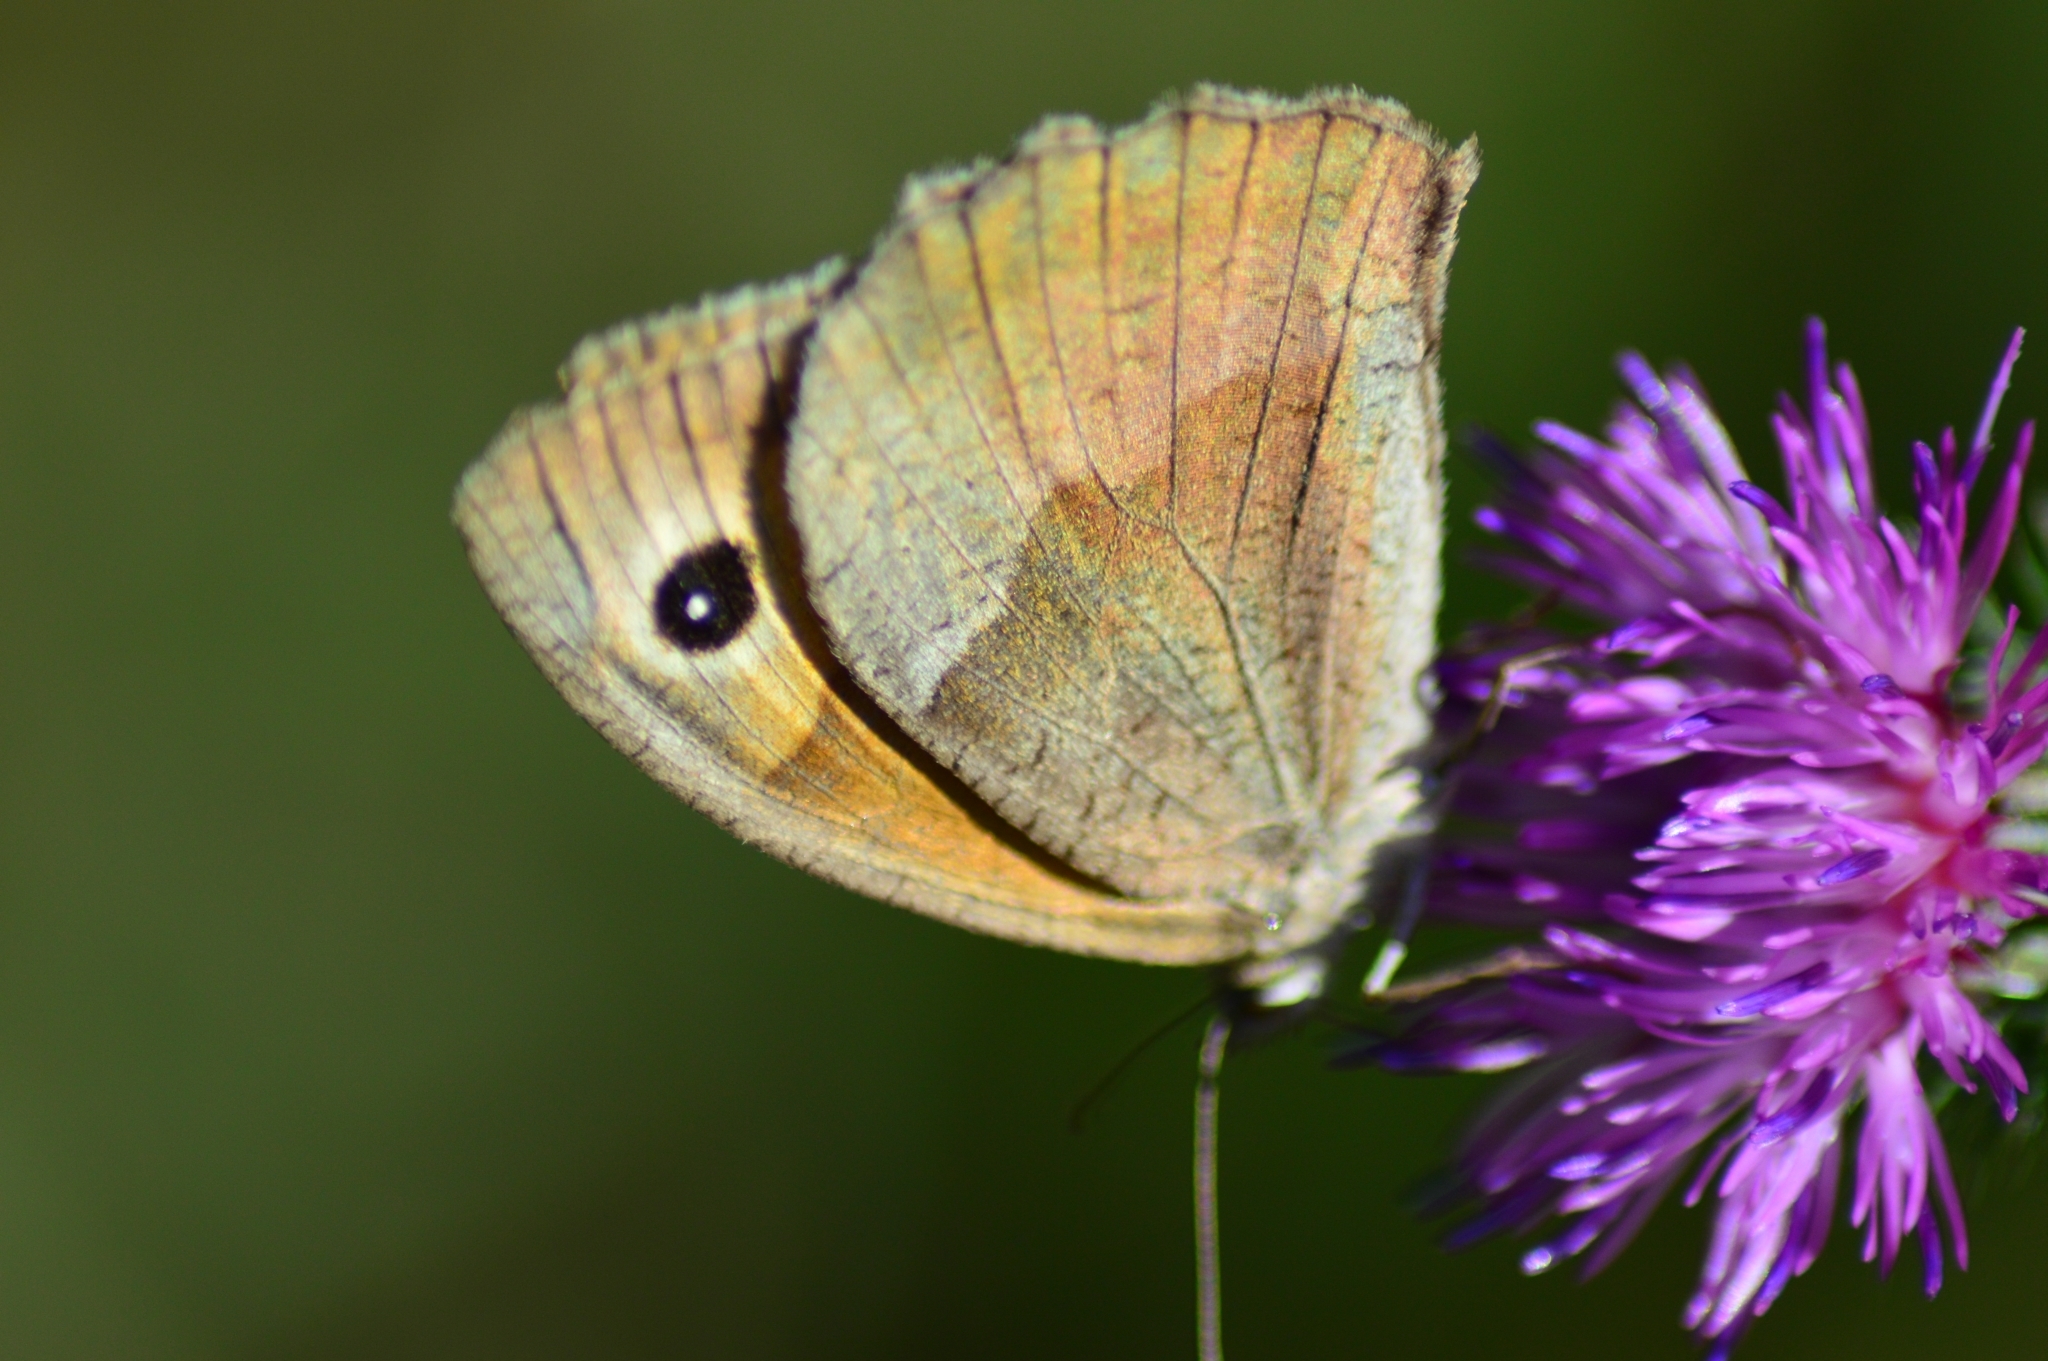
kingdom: Animalia
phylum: Arthropoda
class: Insecta
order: Lepidoptera
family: Nymphalidae
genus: Maniola
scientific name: Maniola jurtina
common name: Meadow brown
